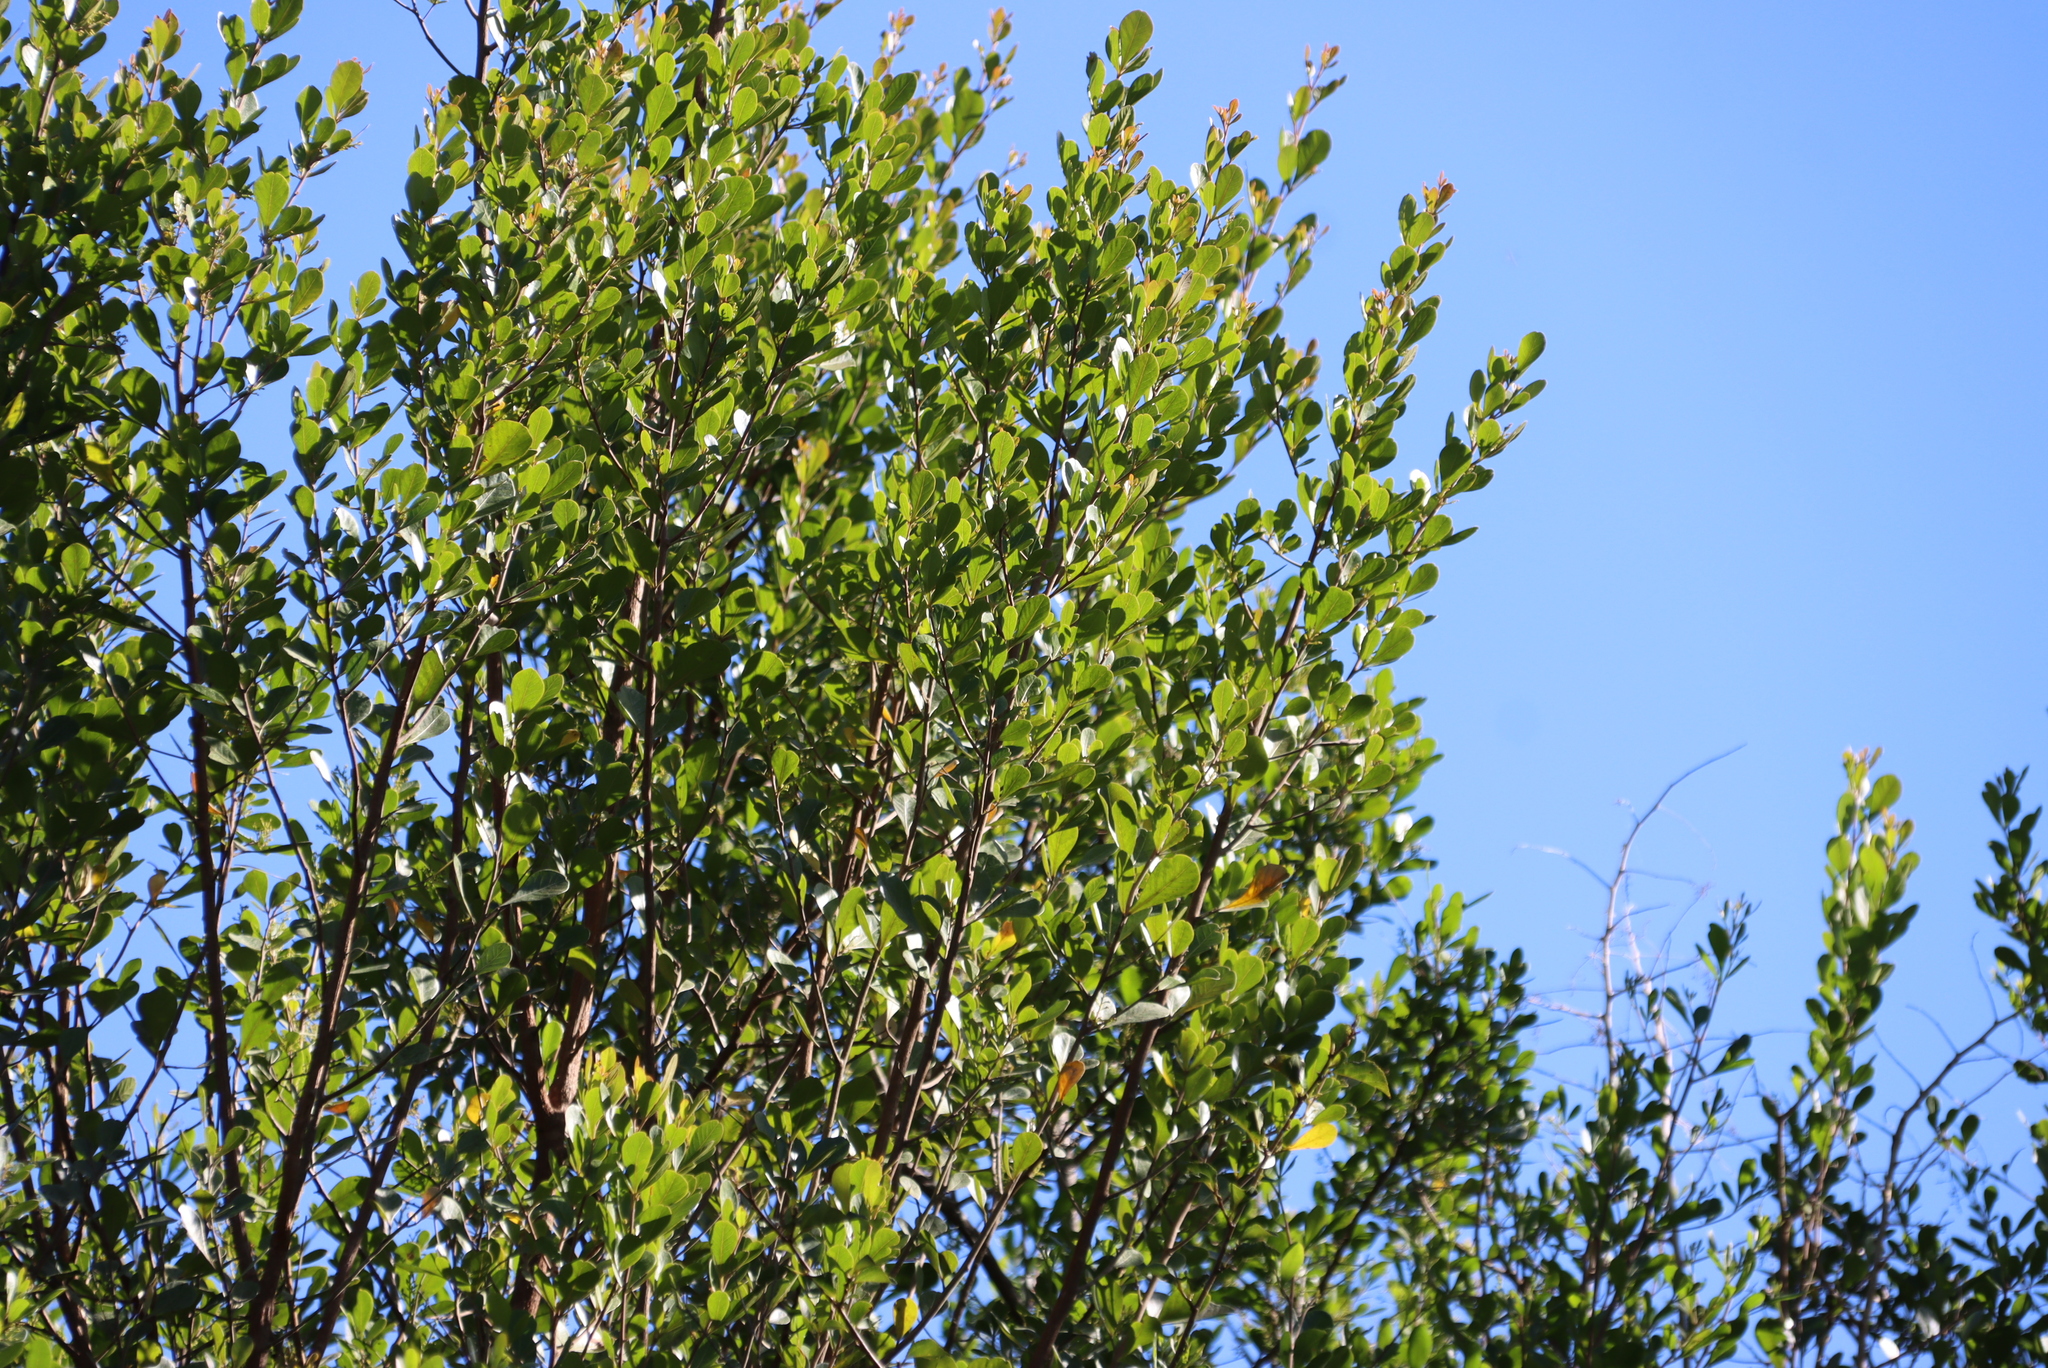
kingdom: Plantae
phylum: Tracheophyta
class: Magnoliopsida
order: Sapindales
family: Anacardiaceae
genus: Searsia
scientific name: Searsia lucida
